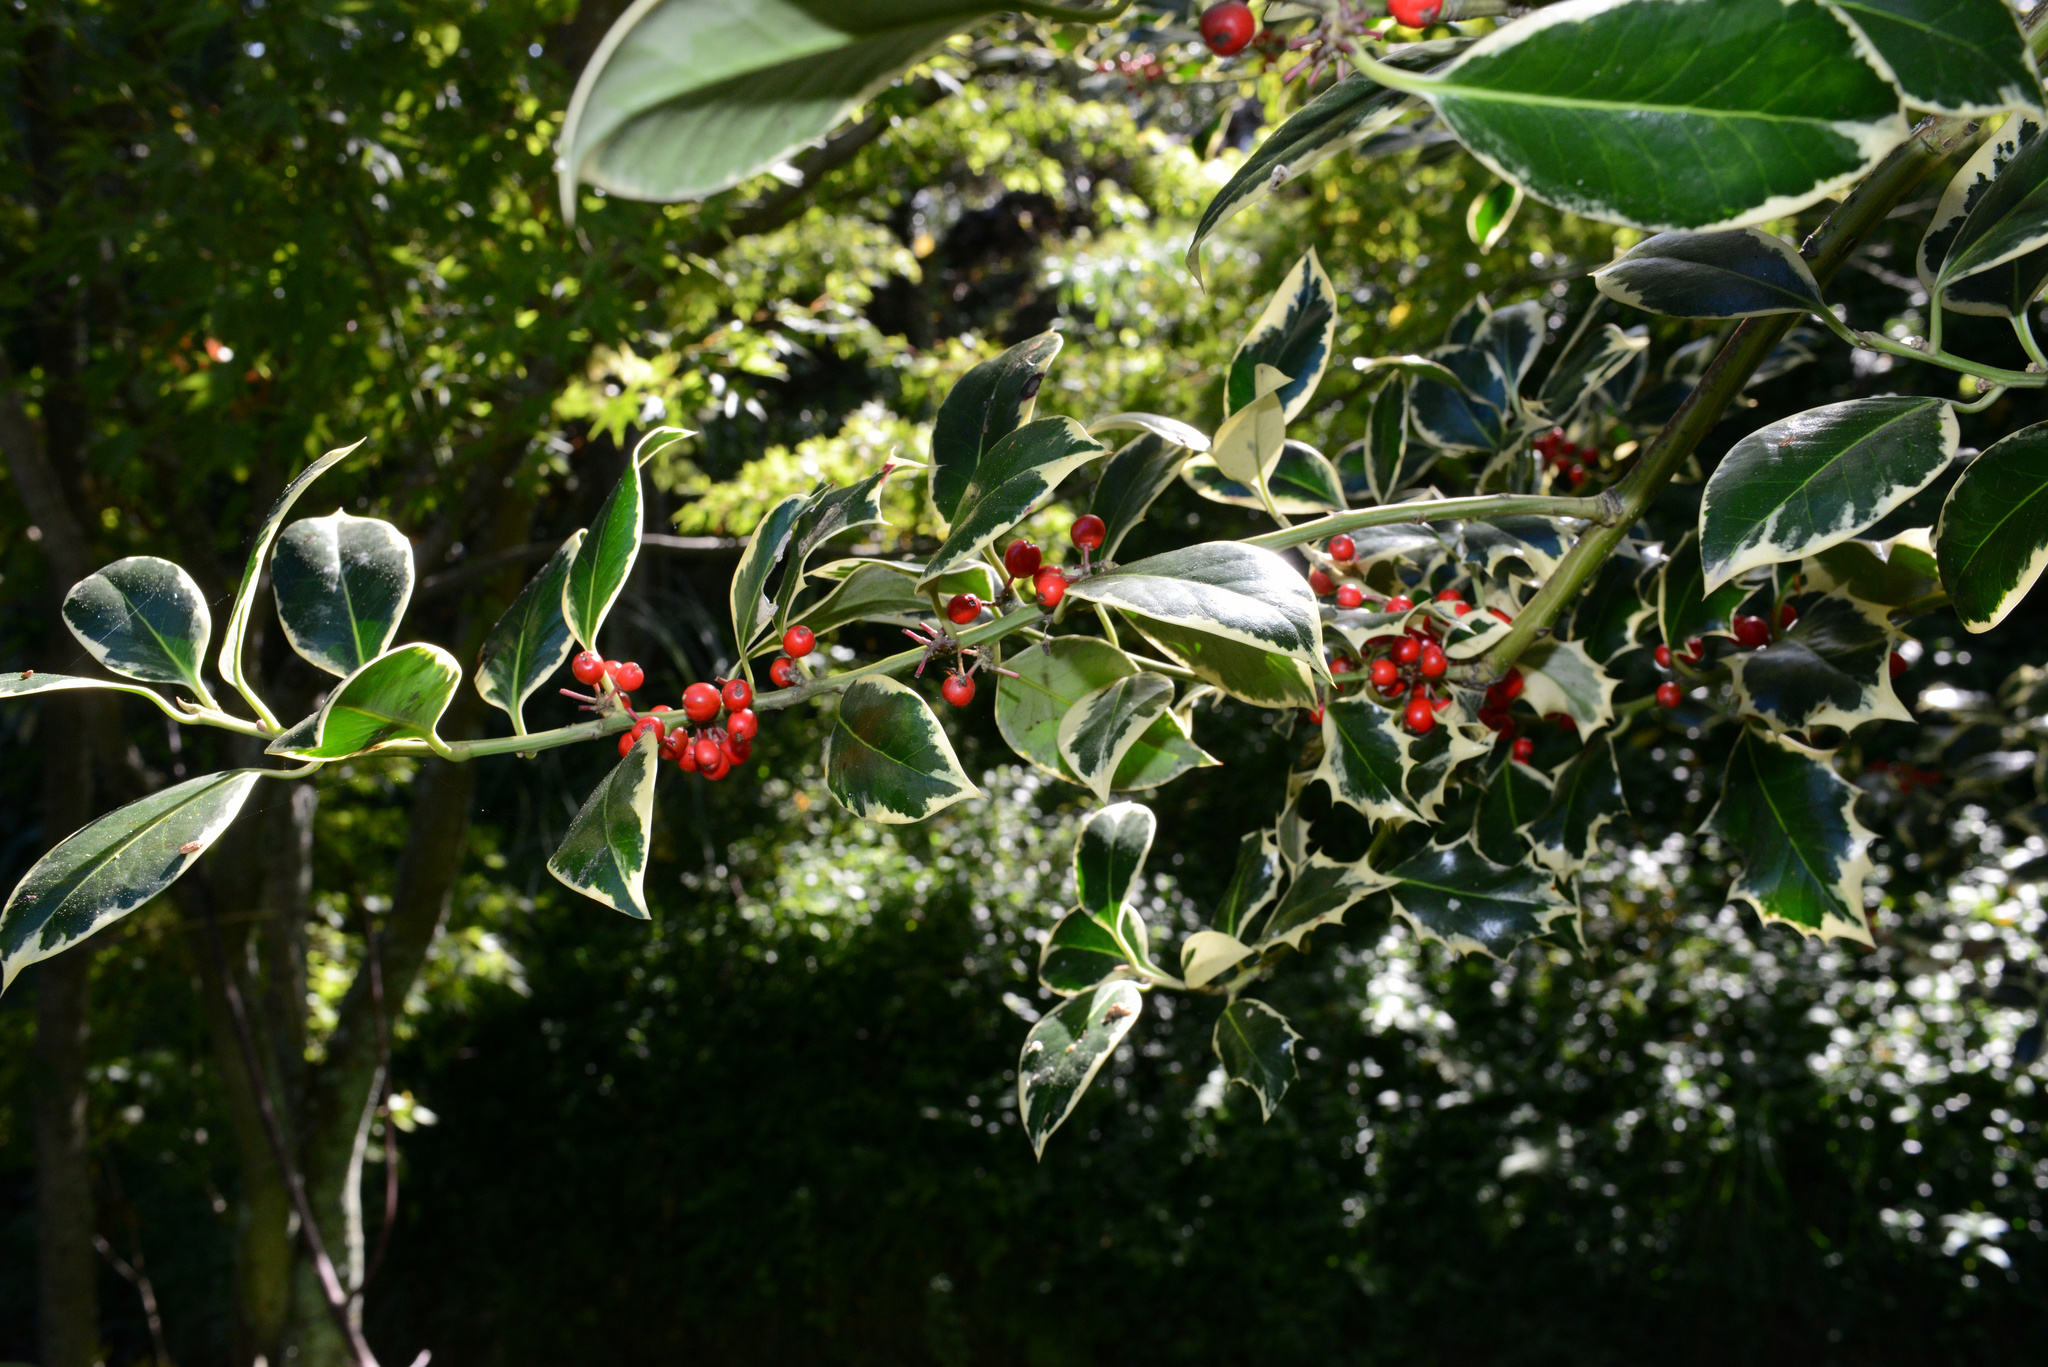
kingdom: Plantae
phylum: Tracheophyta
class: Magnoliopsida
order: Aquifoliales
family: Aquifoliaceae
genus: Ilex
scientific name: Ilex aquifolium
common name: English holly
